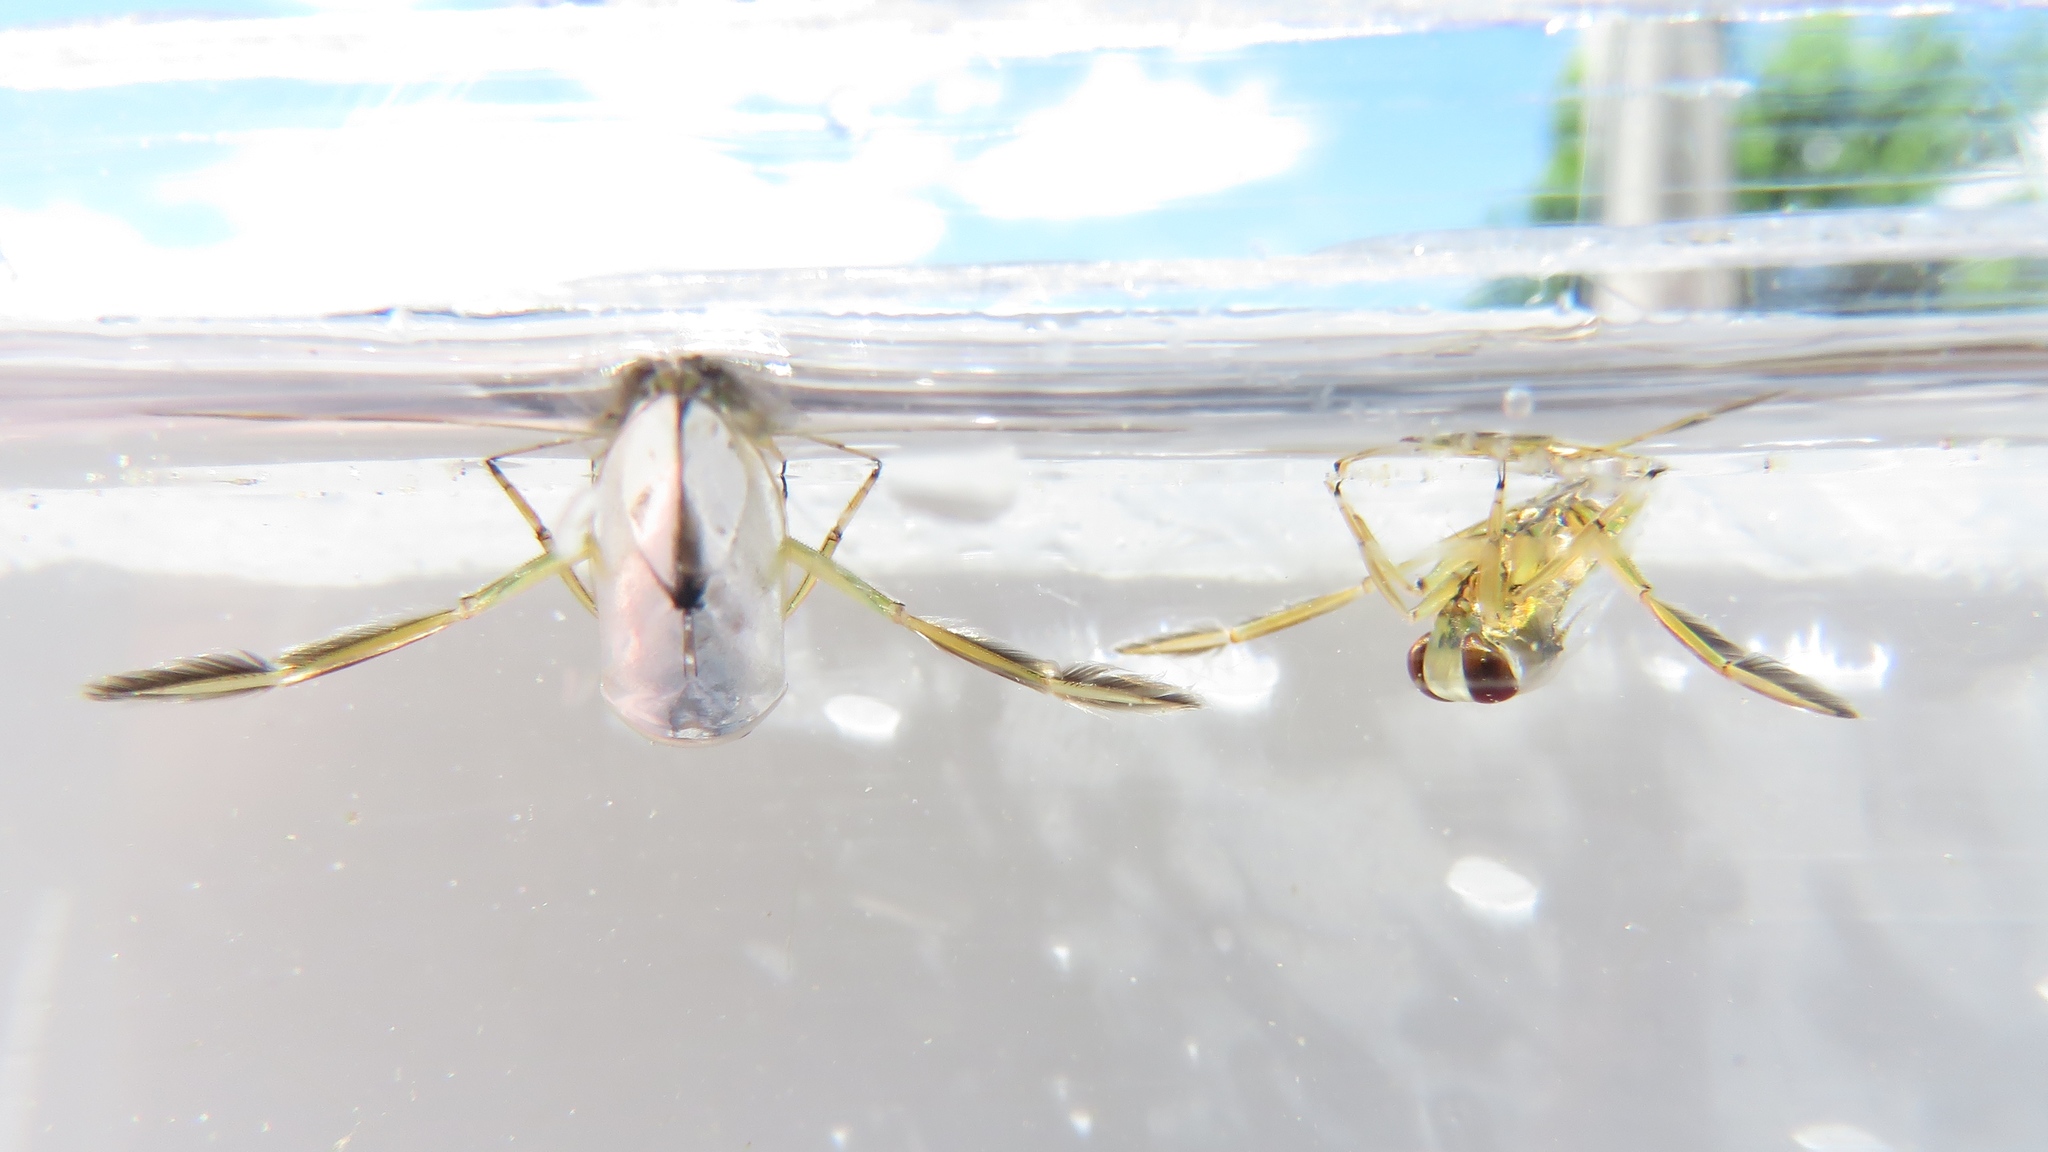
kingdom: Animalia
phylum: Arthropoda
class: Insecta
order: Hemiptera
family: Notonectidae
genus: Notonecta
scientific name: Notonecta
